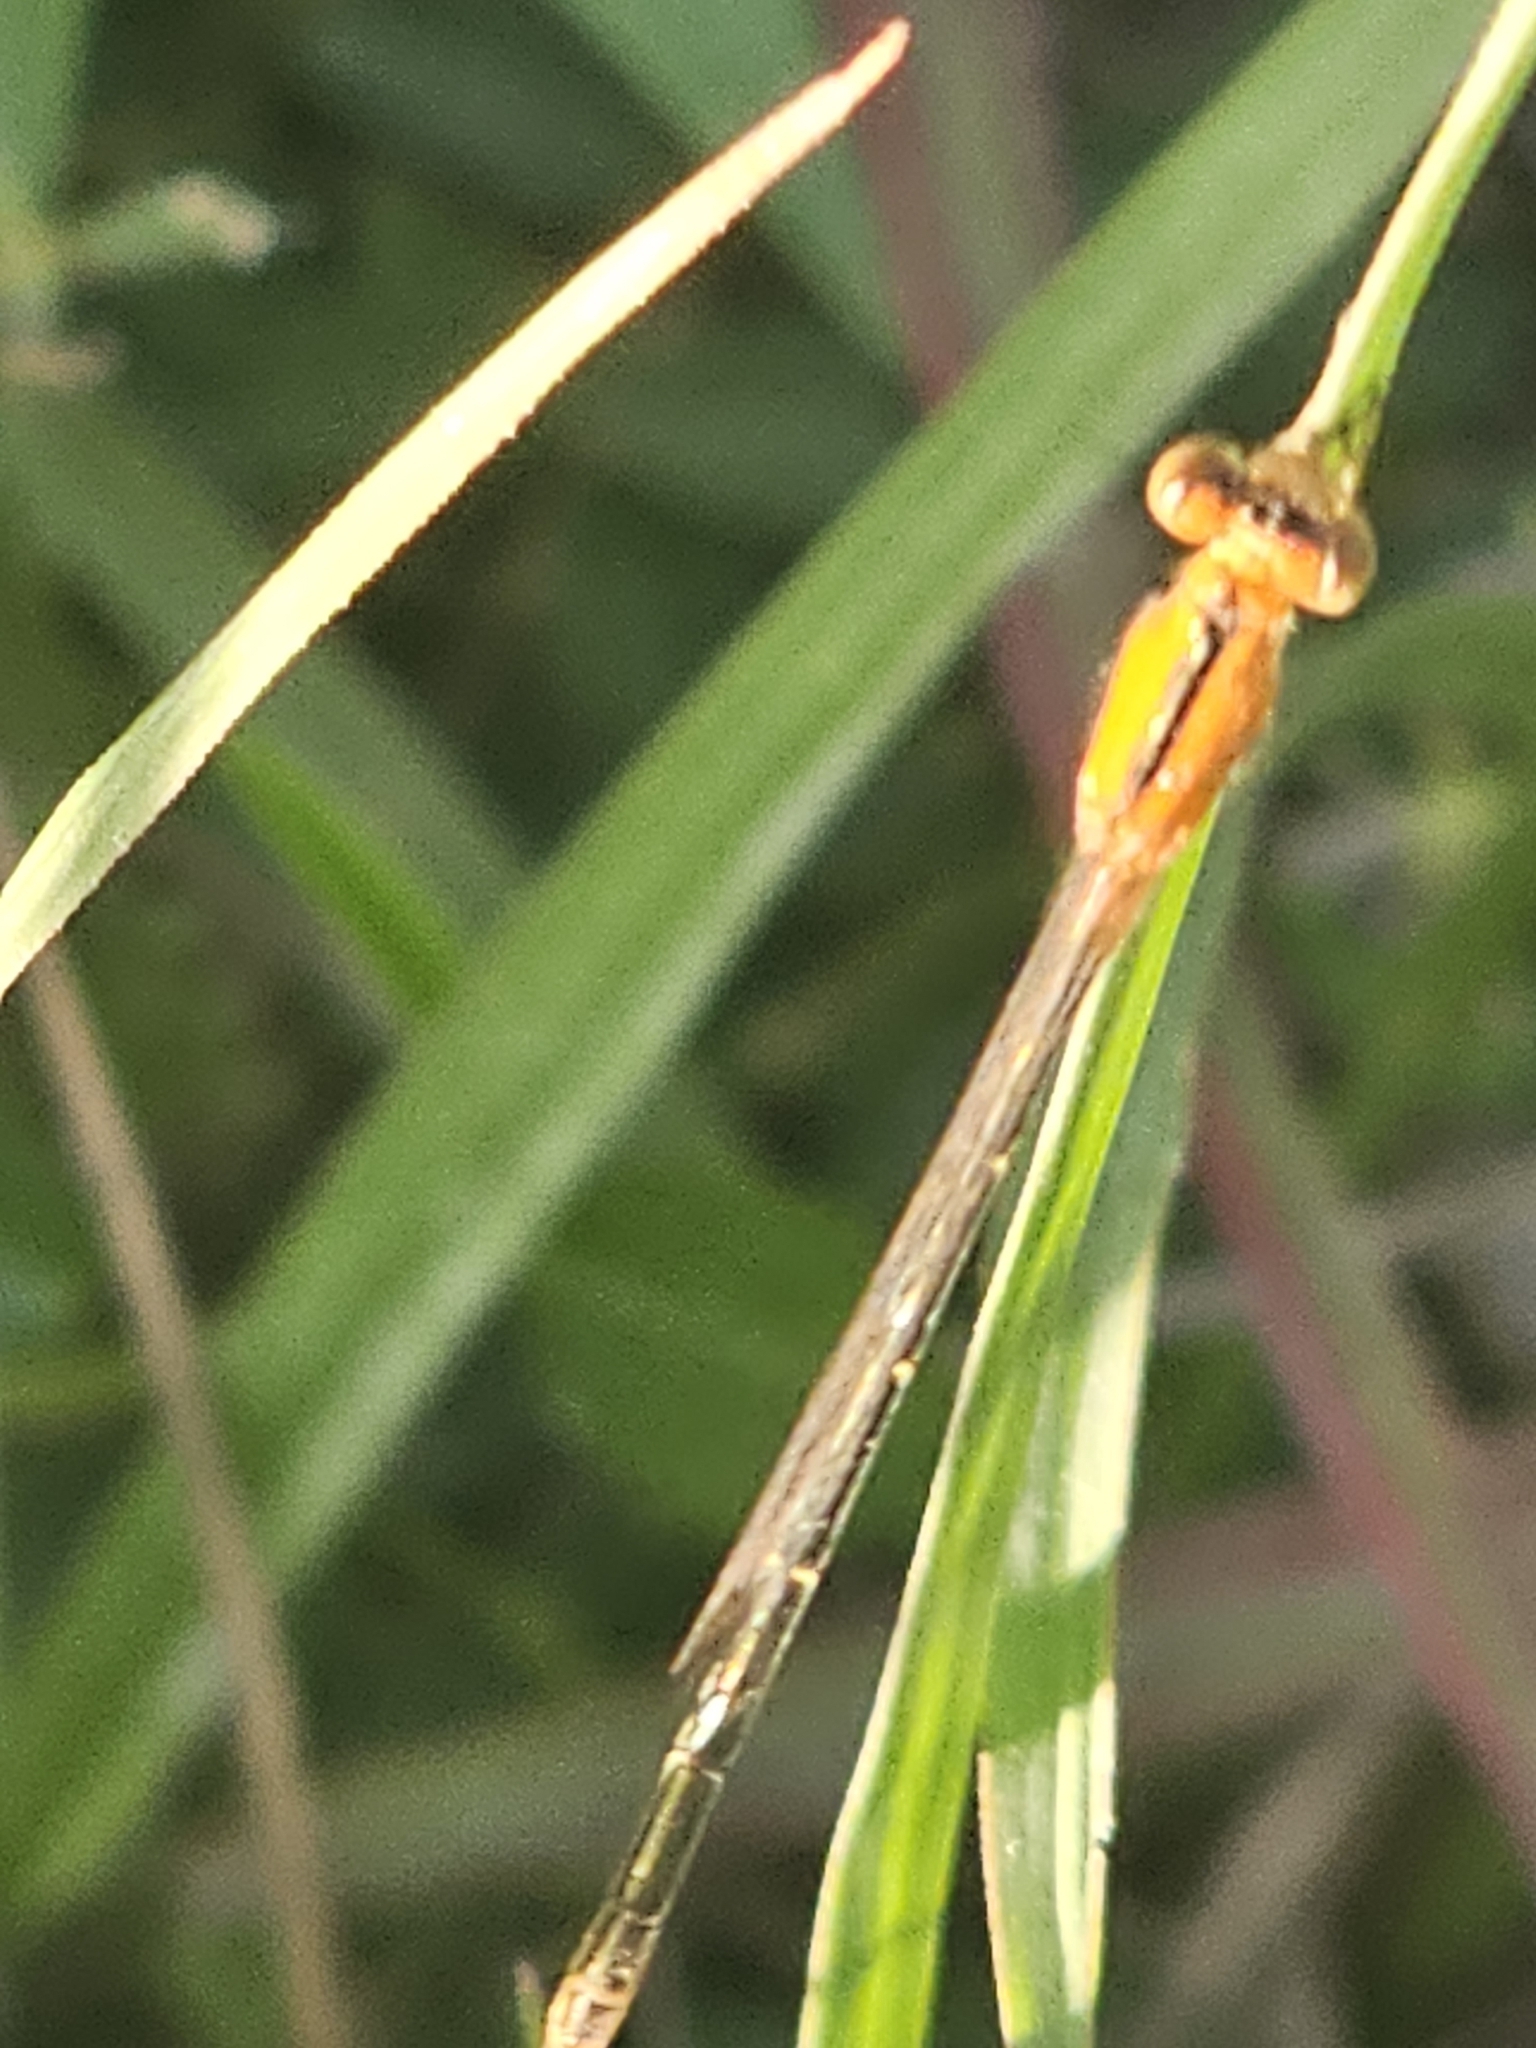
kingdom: Animalia
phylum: Arthropoda
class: Insecta
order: Odonata
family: Coenagrionidae
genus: Ischnura
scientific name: Ischnura fluviatilis
